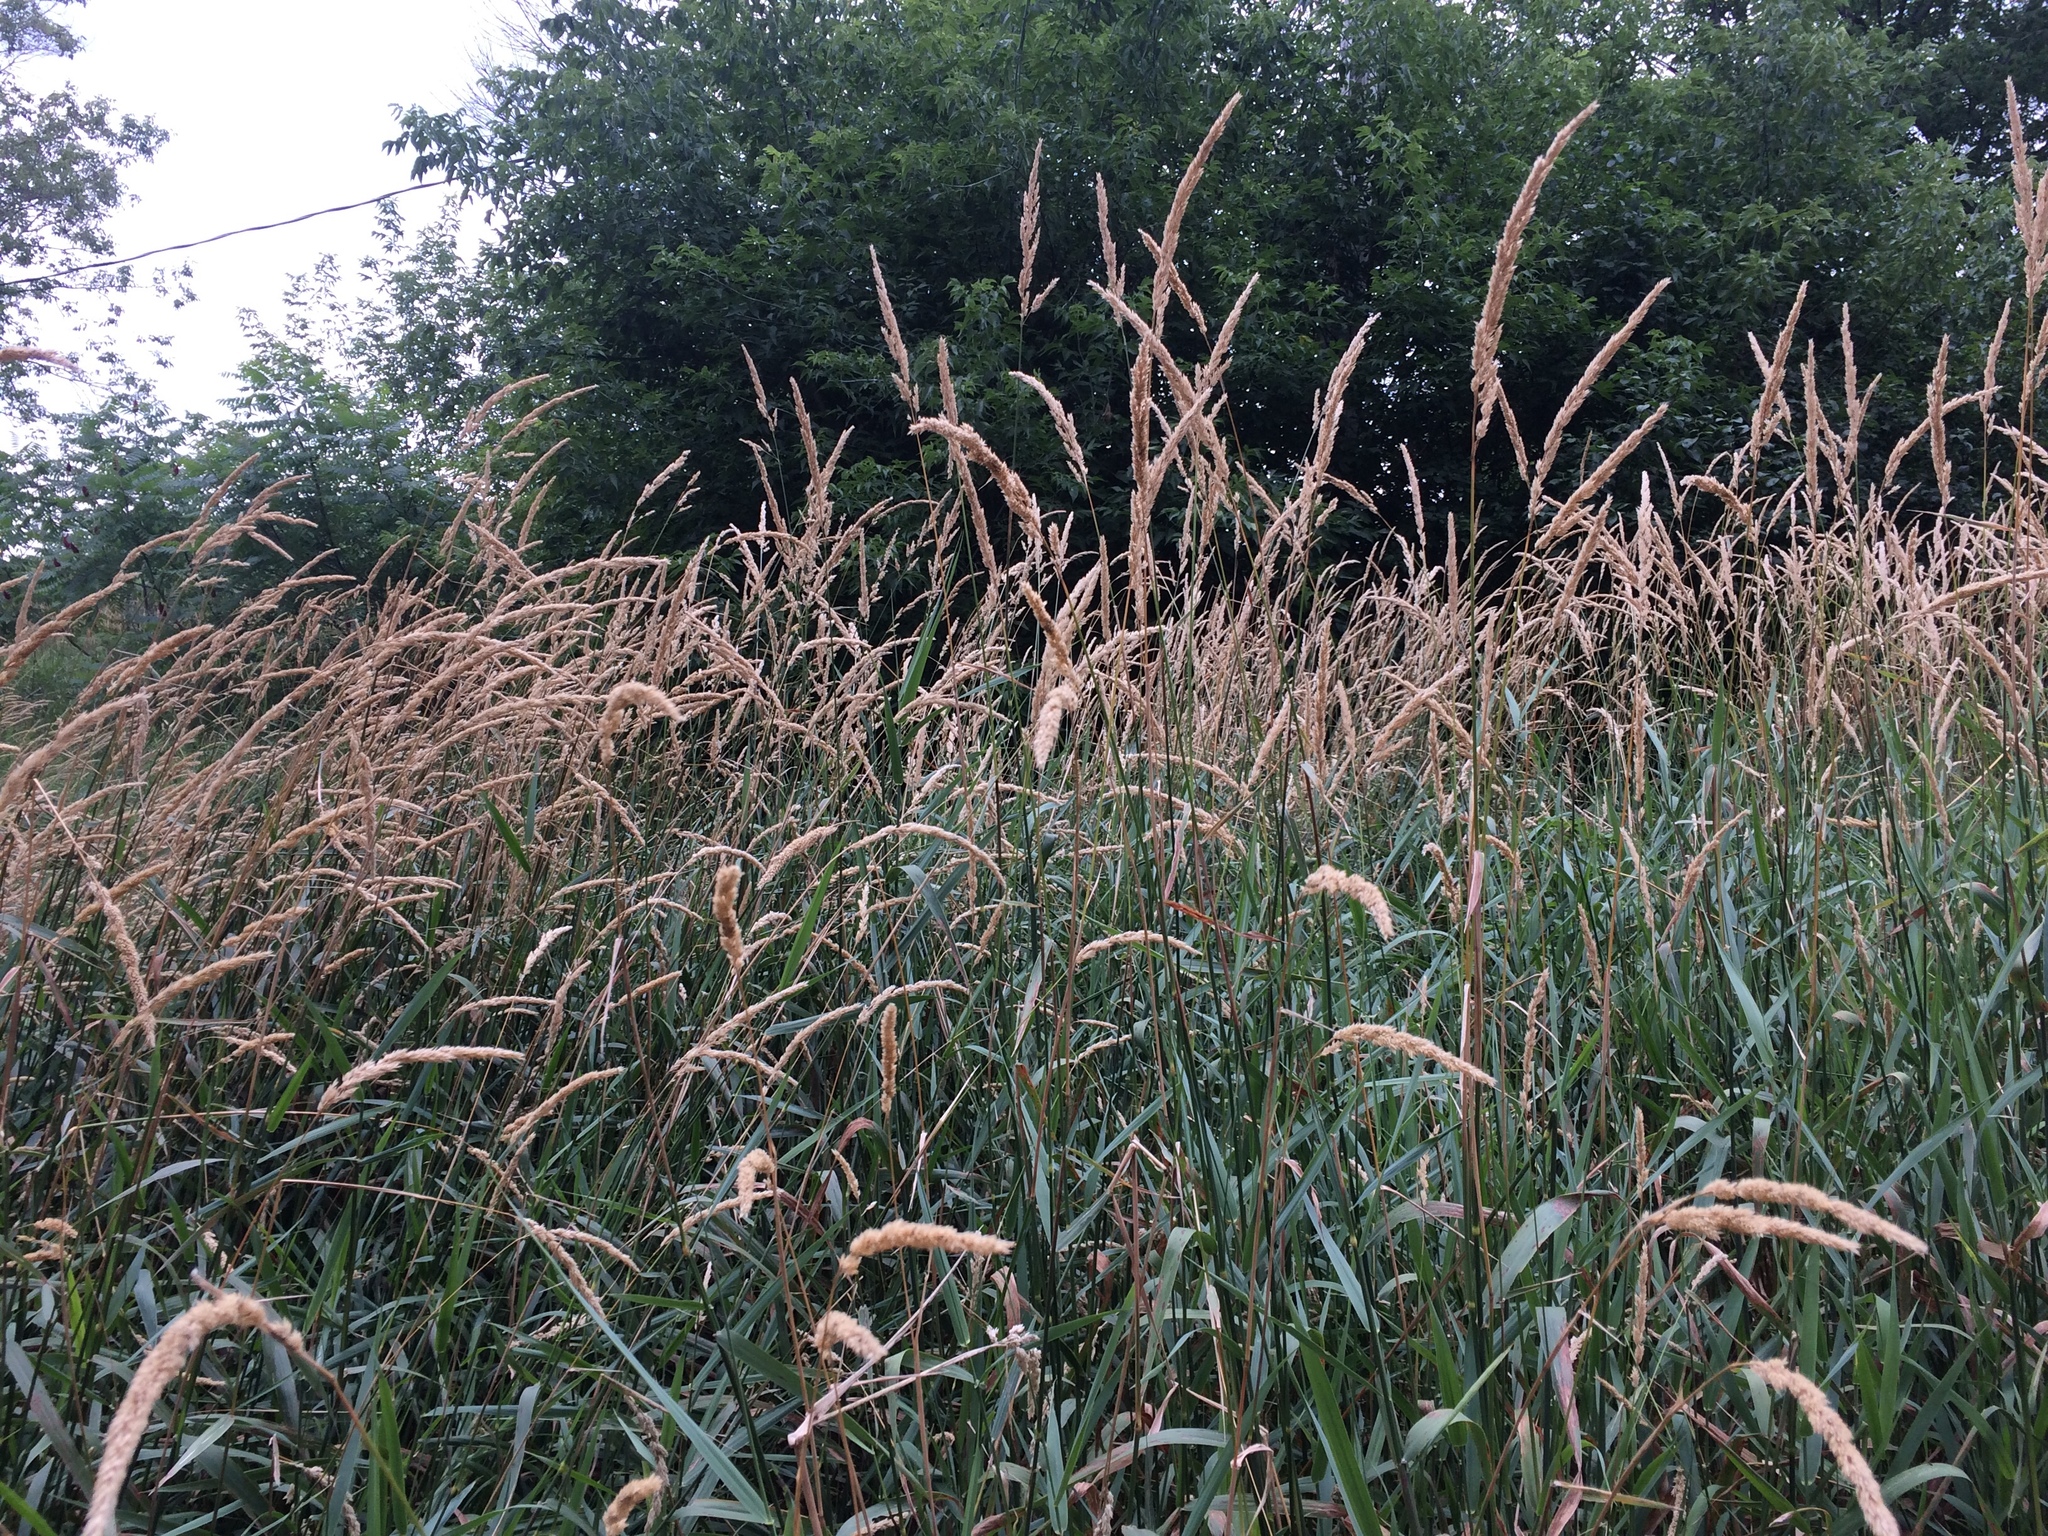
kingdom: Plantae
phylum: Tracheophyta
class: Liliopsida
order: Poales
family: Poaceae
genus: Phalaris
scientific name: Phalaris arundinacea
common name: Reed canary-grass
